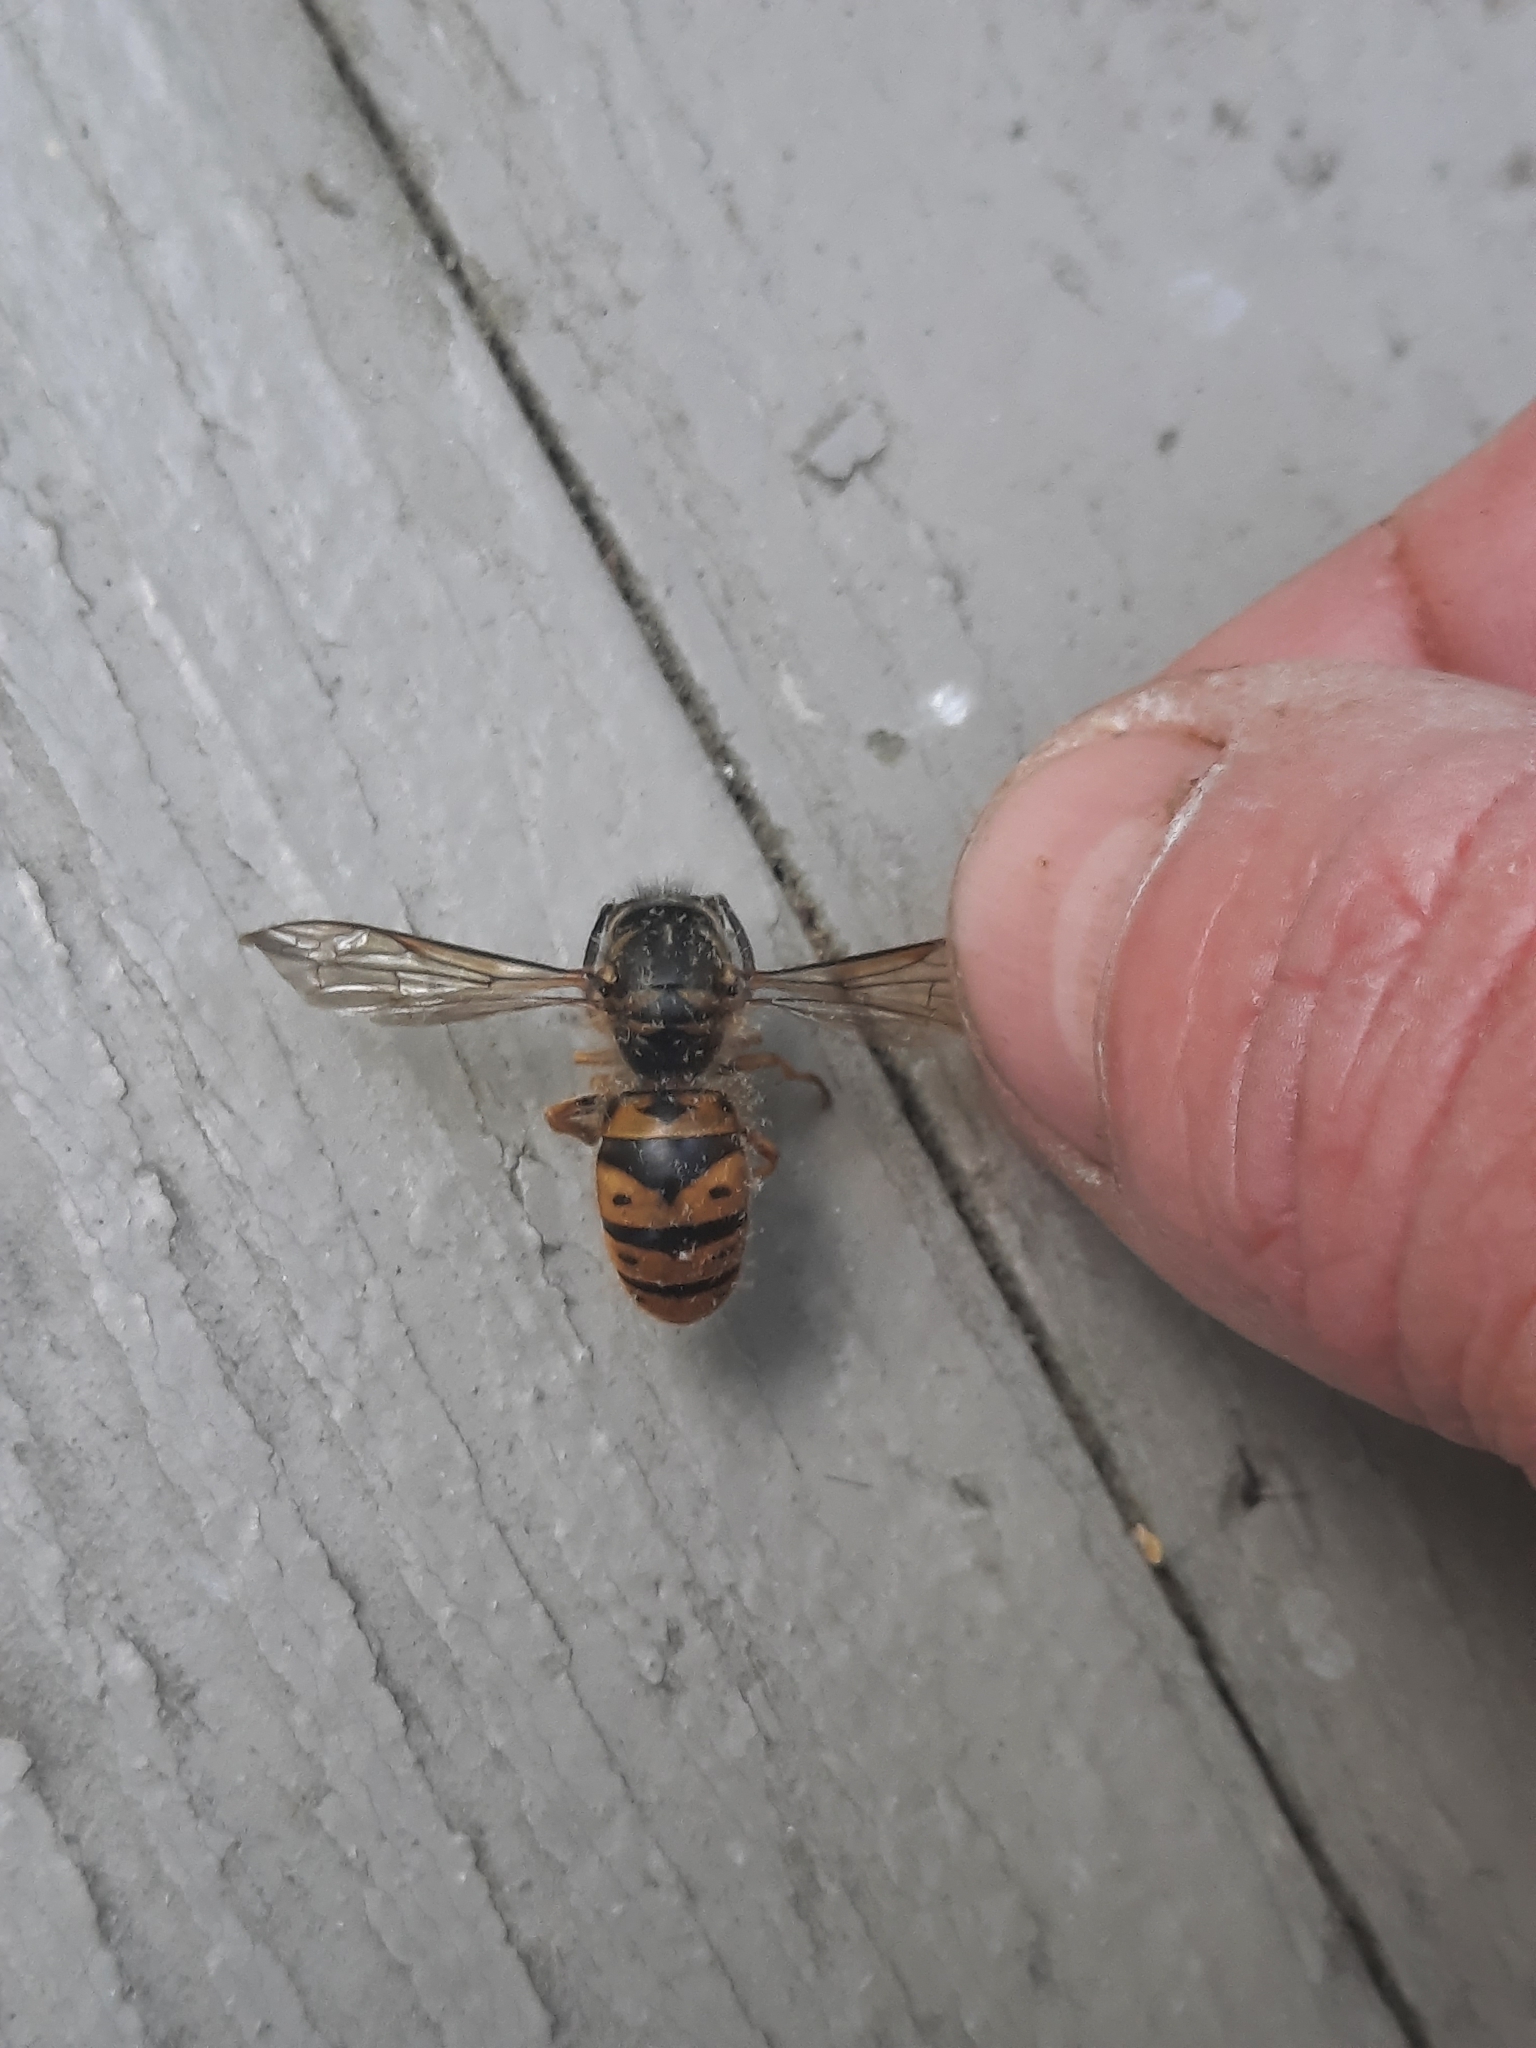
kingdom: Animalia
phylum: Arthropoda
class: Insecta
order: Hymenoptera
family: Vespidae
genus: Vespula
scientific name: Vespula maculifrons
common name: Eastern yellowjacket
